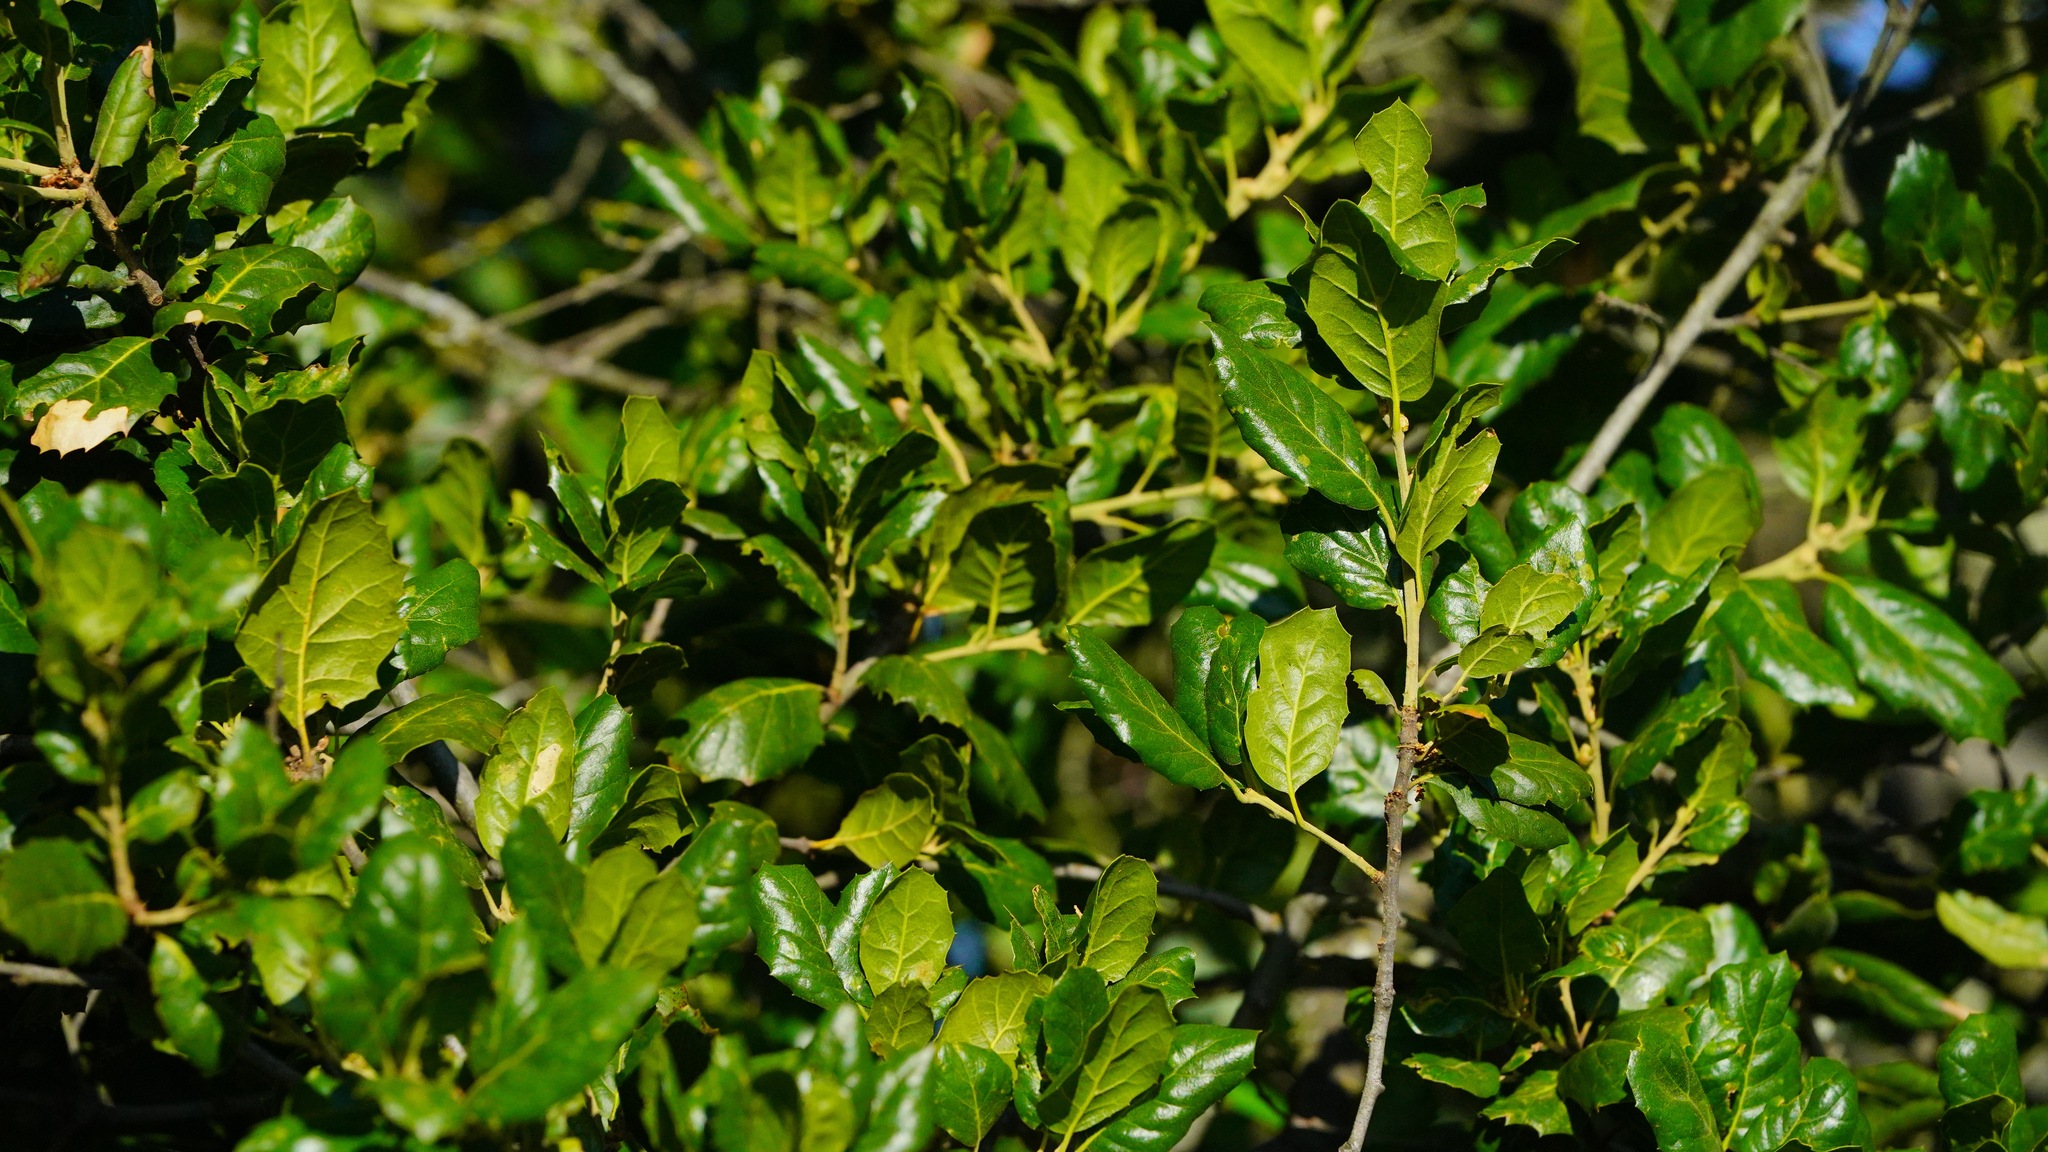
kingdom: Plantae
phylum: Tracheophyta
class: Magnoliopsida
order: Fagales
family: Fagaceae
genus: Quercus
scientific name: Quercus agrifolia
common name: California live oak
